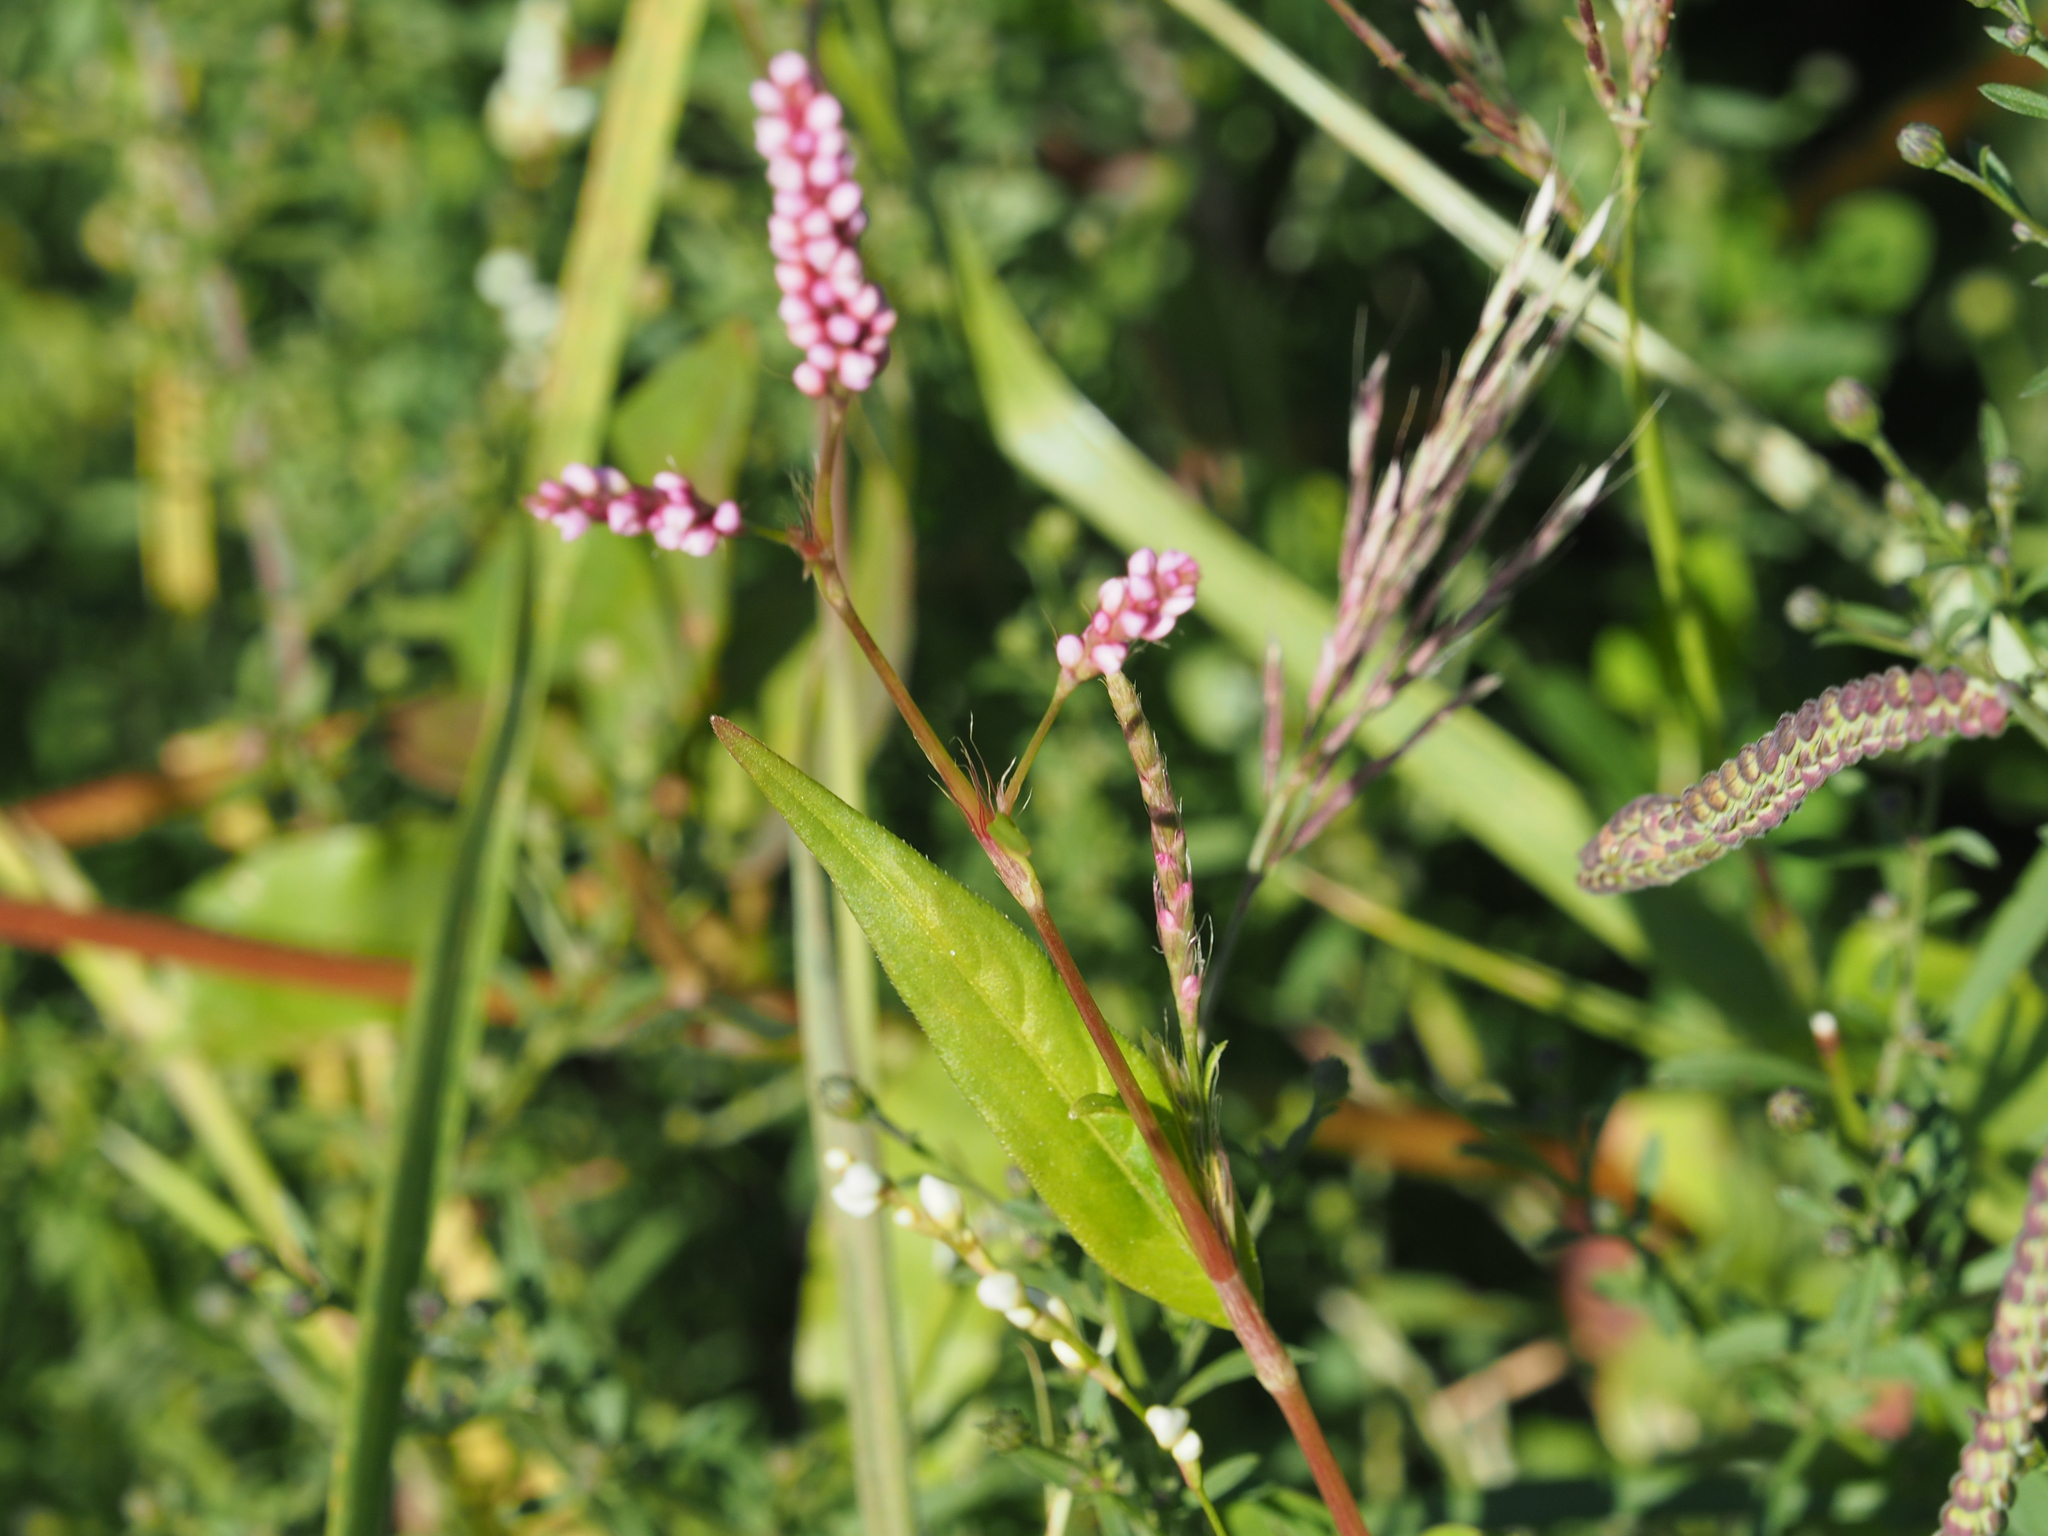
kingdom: Plantae
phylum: Tracheophyta
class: Magnoliopsida
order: Caryophyllales
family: Polygonaceae
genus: Persicaria
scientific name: Persicaria longiseta
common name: Bristly lady's-thumb
